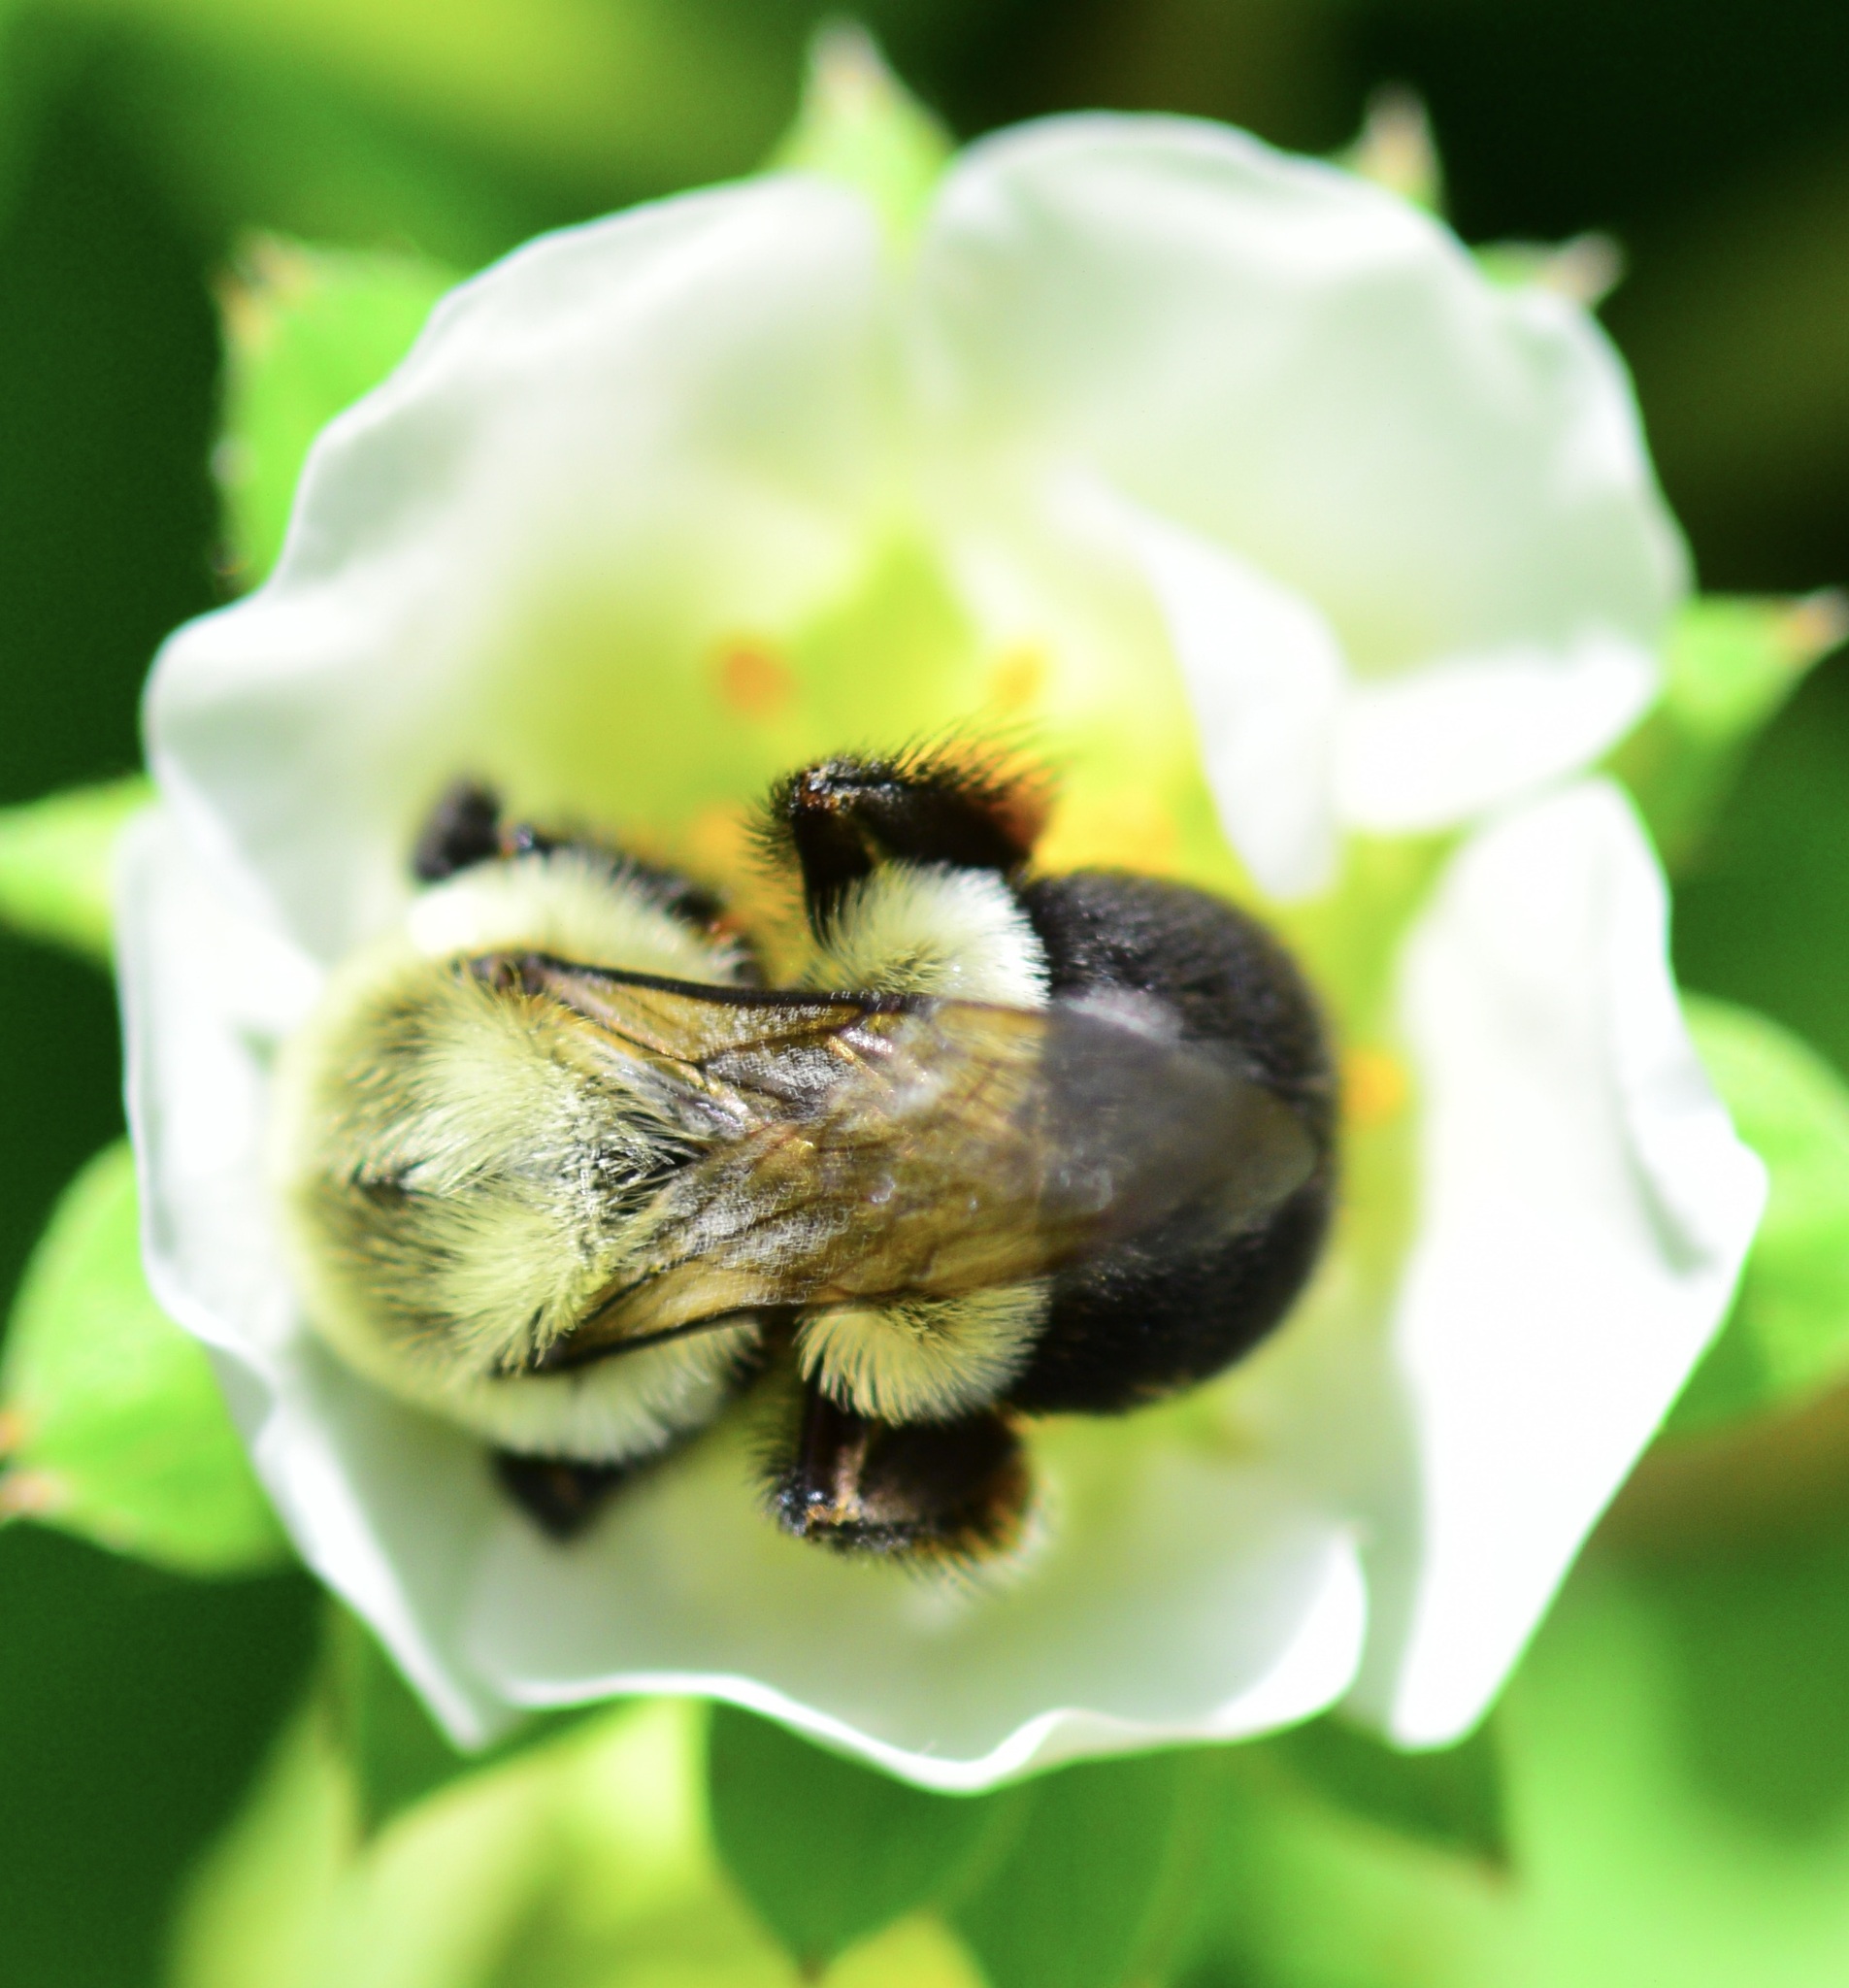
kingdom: Animalia
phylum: Arthropoda
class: Insecta
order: Hymenoptera
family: Apidae
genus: Bombus
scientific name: Bombus impatiens
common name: Common eastern bumble bee
